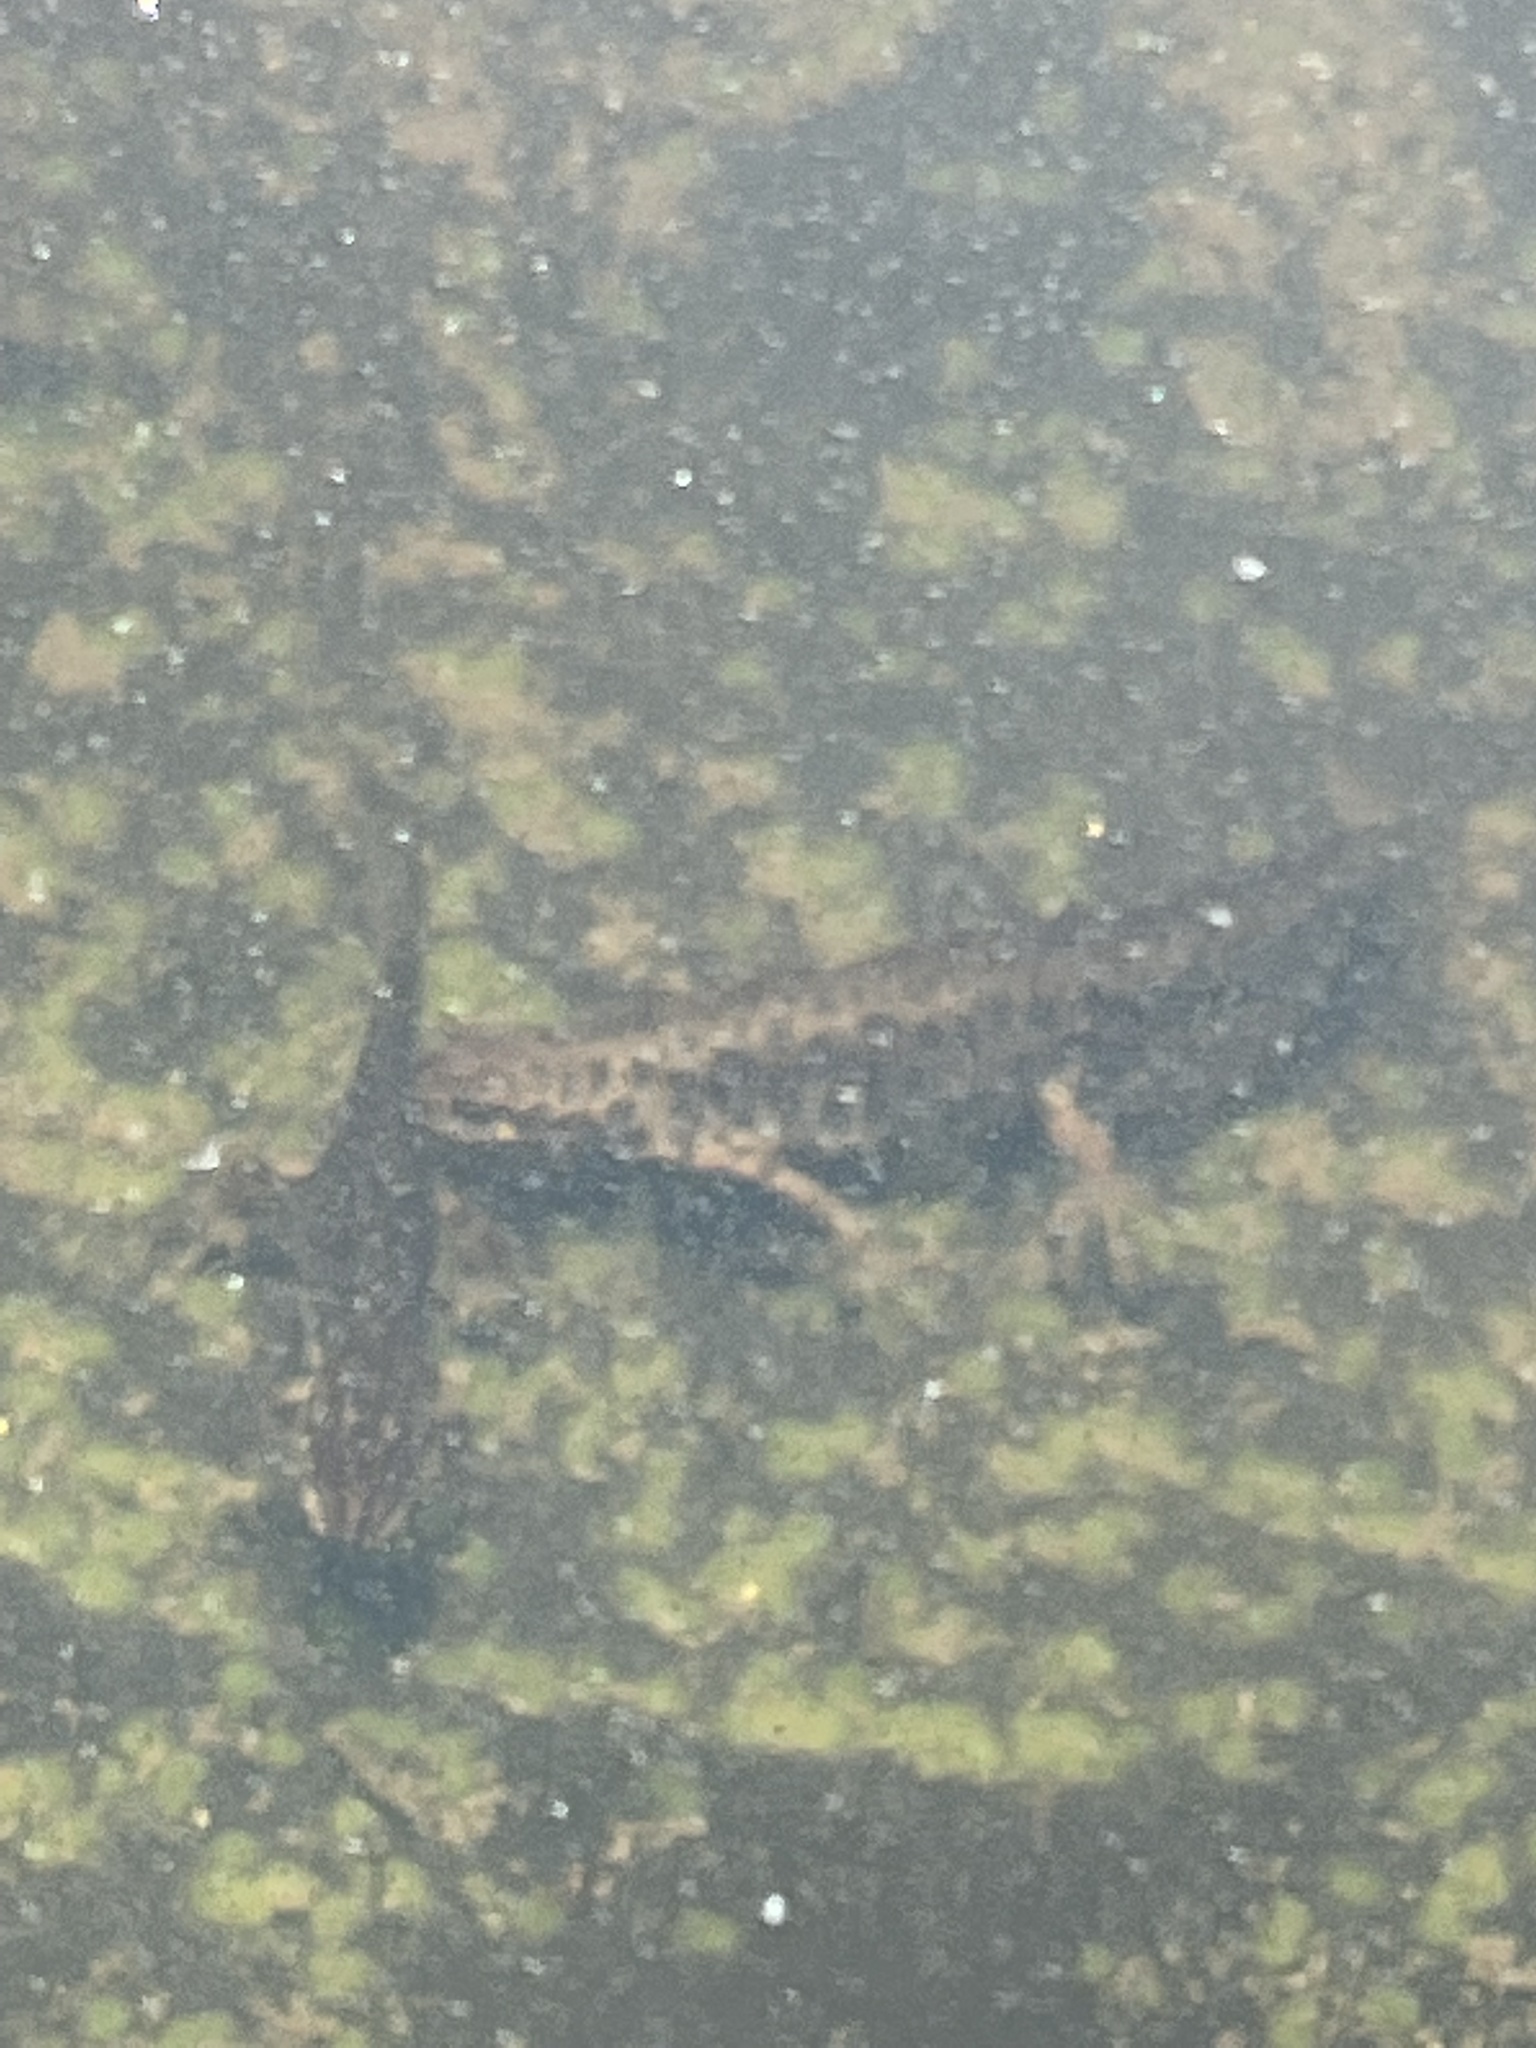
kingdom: Animalia
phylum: Chordata
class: Amphibia
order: Caudata
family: Salamandridae
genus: Lissotriton
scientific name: Lissotriton vulgaris
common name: Smooth newt
